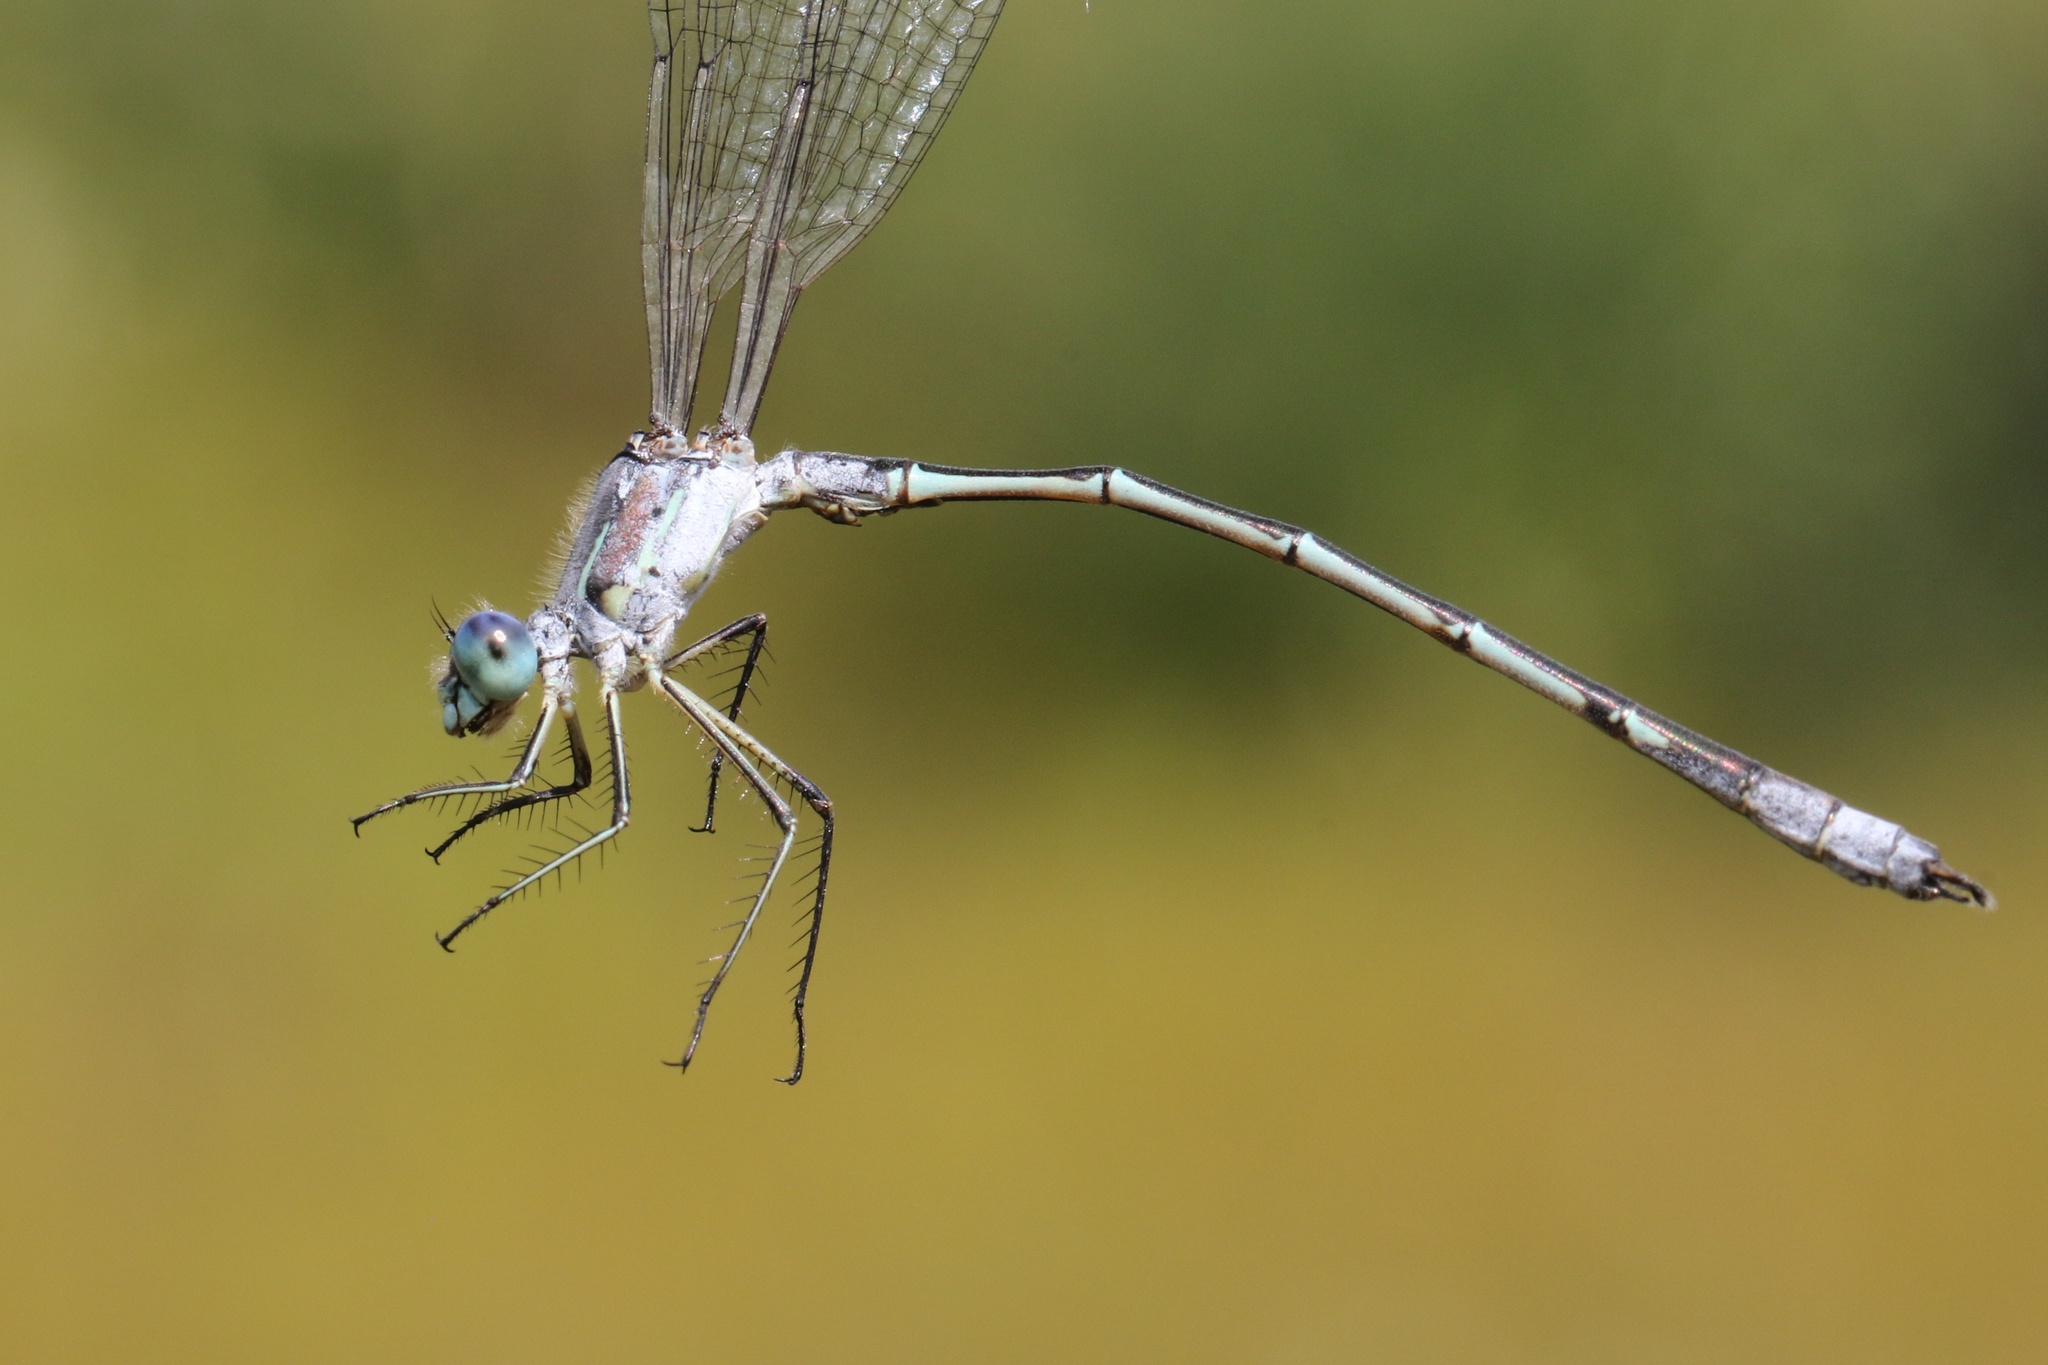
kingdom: Animalia
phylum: Arthropoda
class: Insecta
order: Odonata
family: Lestidae
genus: Lestes
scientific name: Lestes unguiculatus
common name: Lyre-tipped spreadwing
